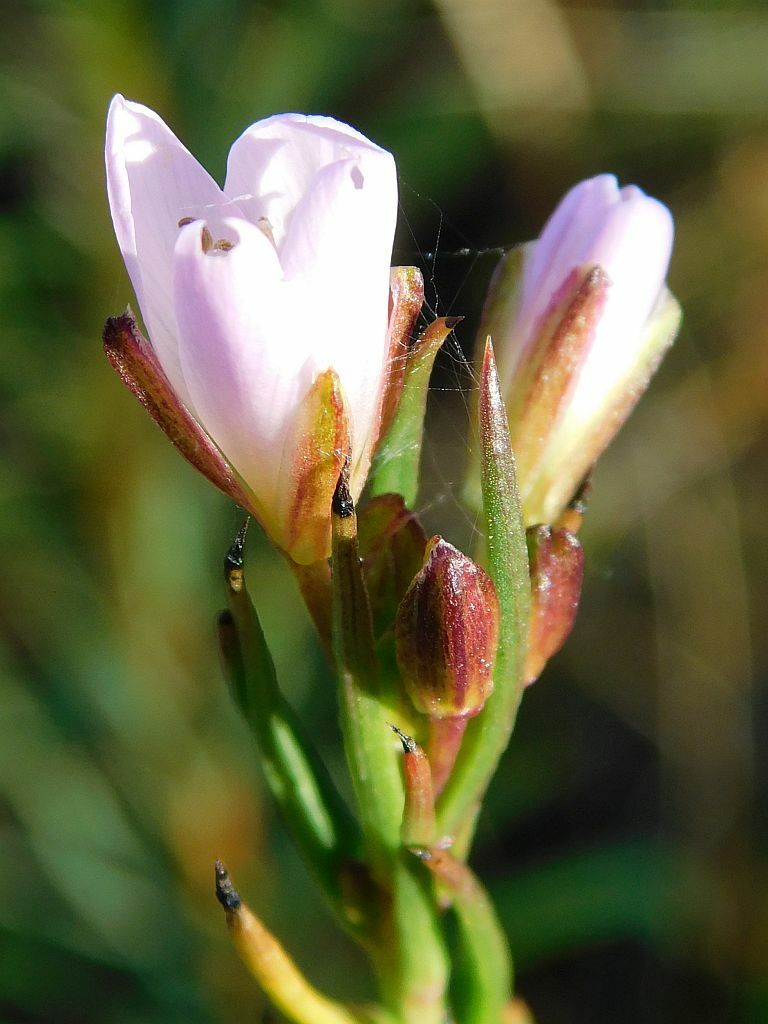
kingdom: Plantae
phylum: Tracheophyta
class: Magnoliopsida
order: Brassicales
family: Brassicaceae
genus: Heliophila
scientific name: Heliophila scoparia
